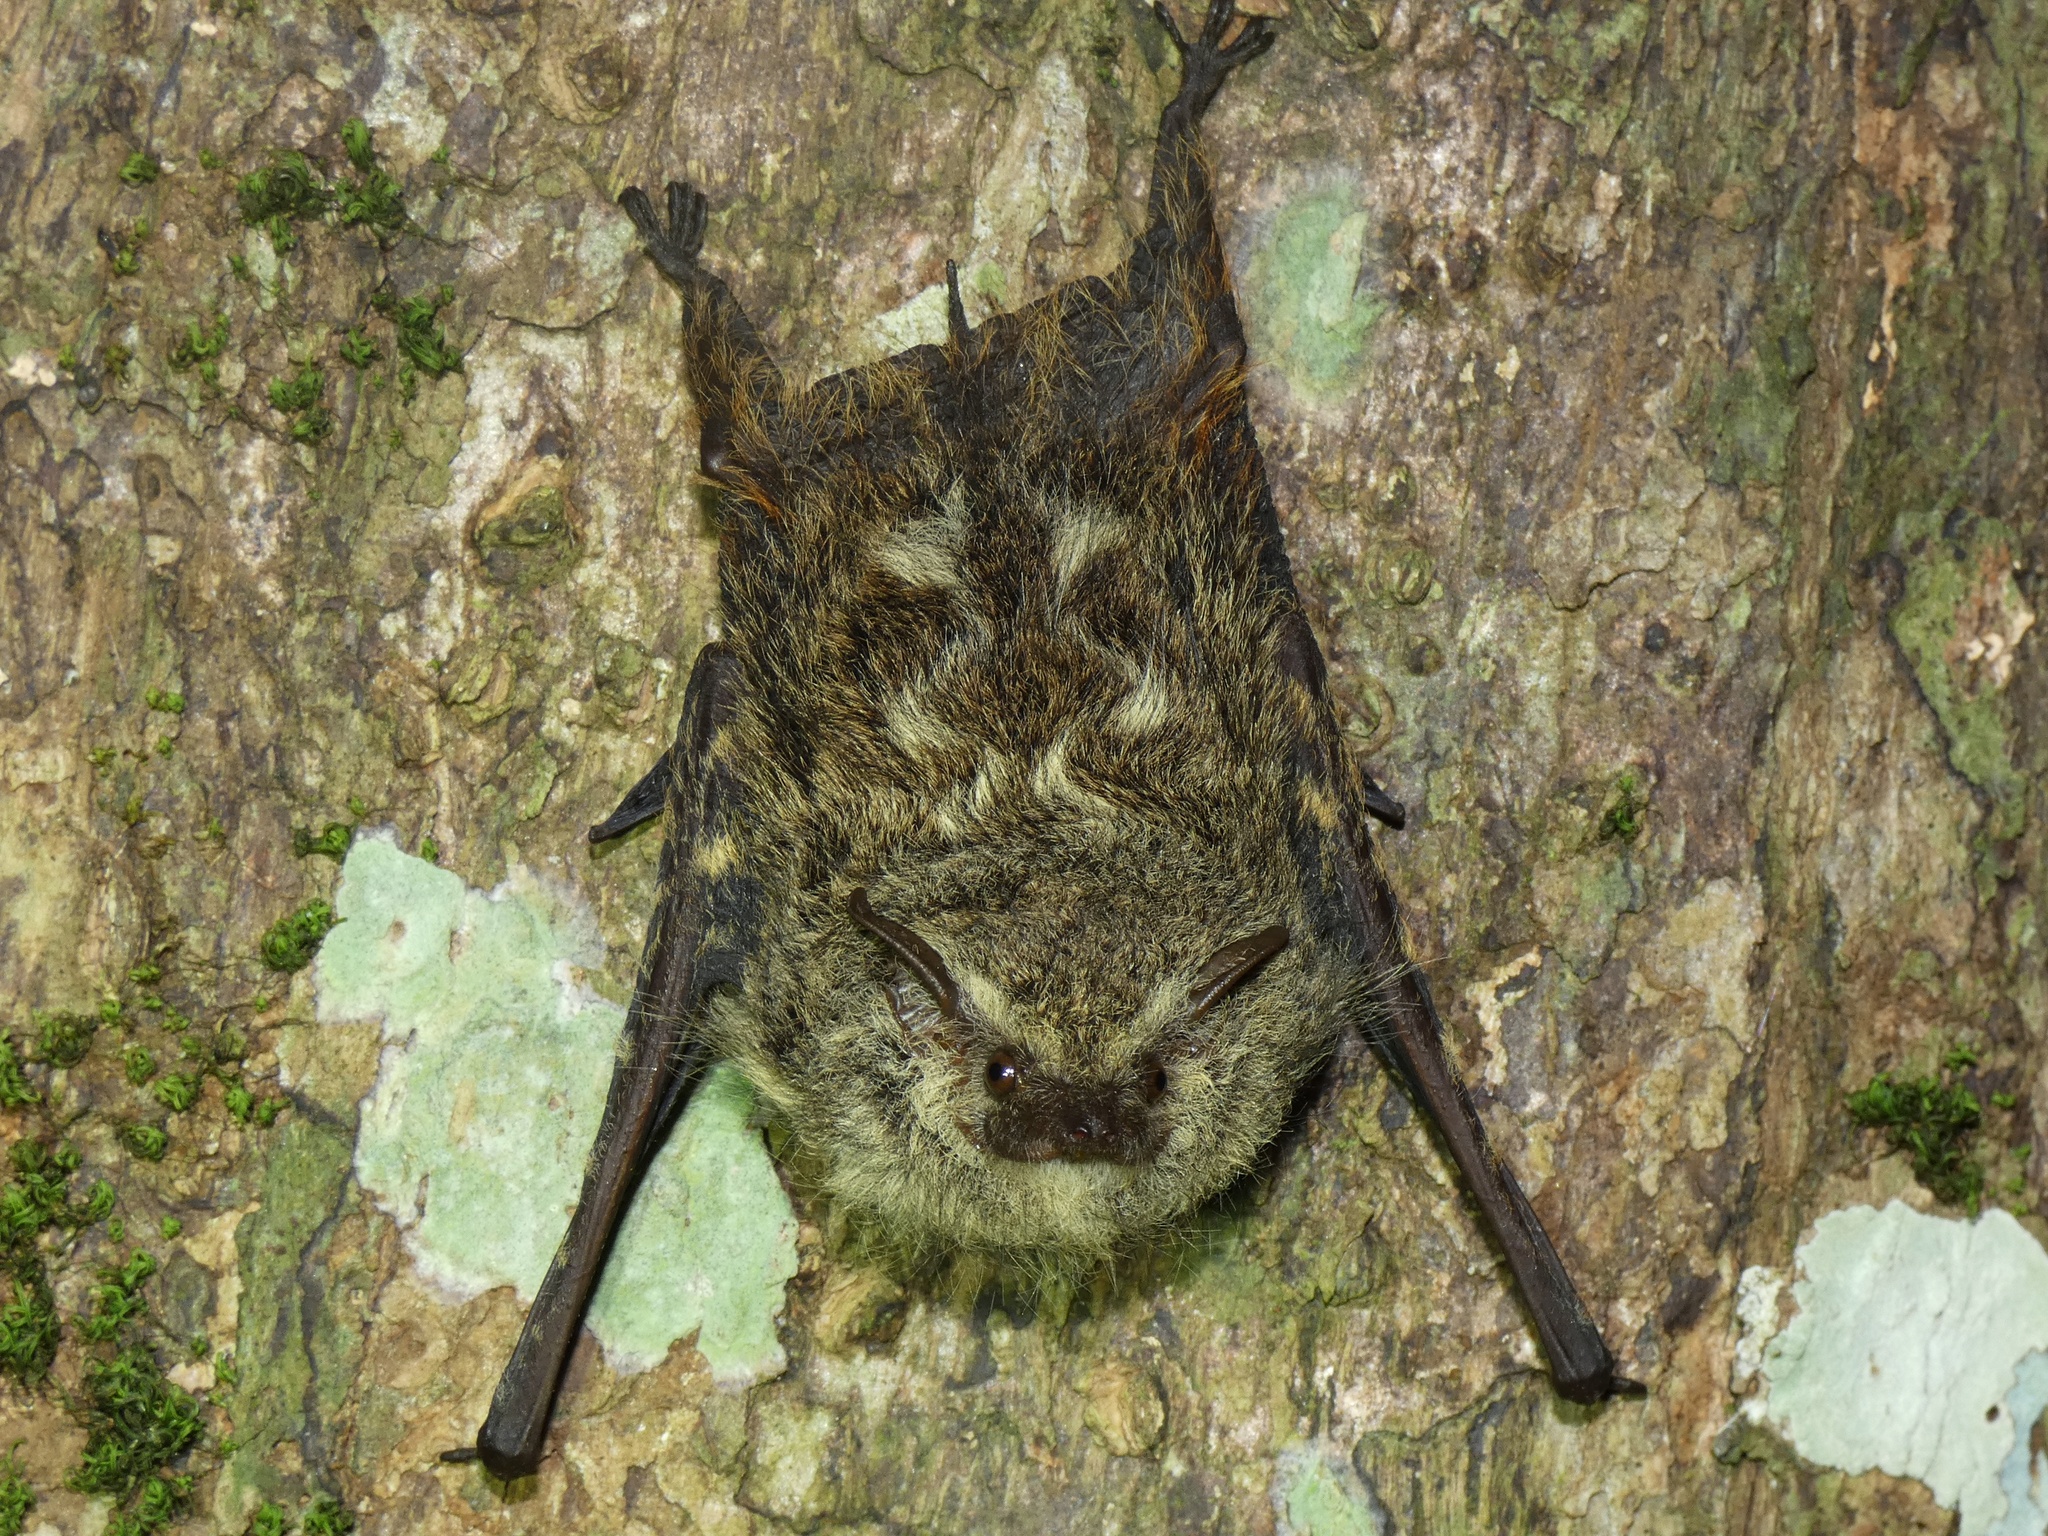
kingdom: Animalia
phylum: Chordata
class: Mammalia
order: Chiroptera
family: Emballonuridae
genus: Rhynchonycteris
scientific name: Rhynchonycteris naso
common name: Proboscis bat
